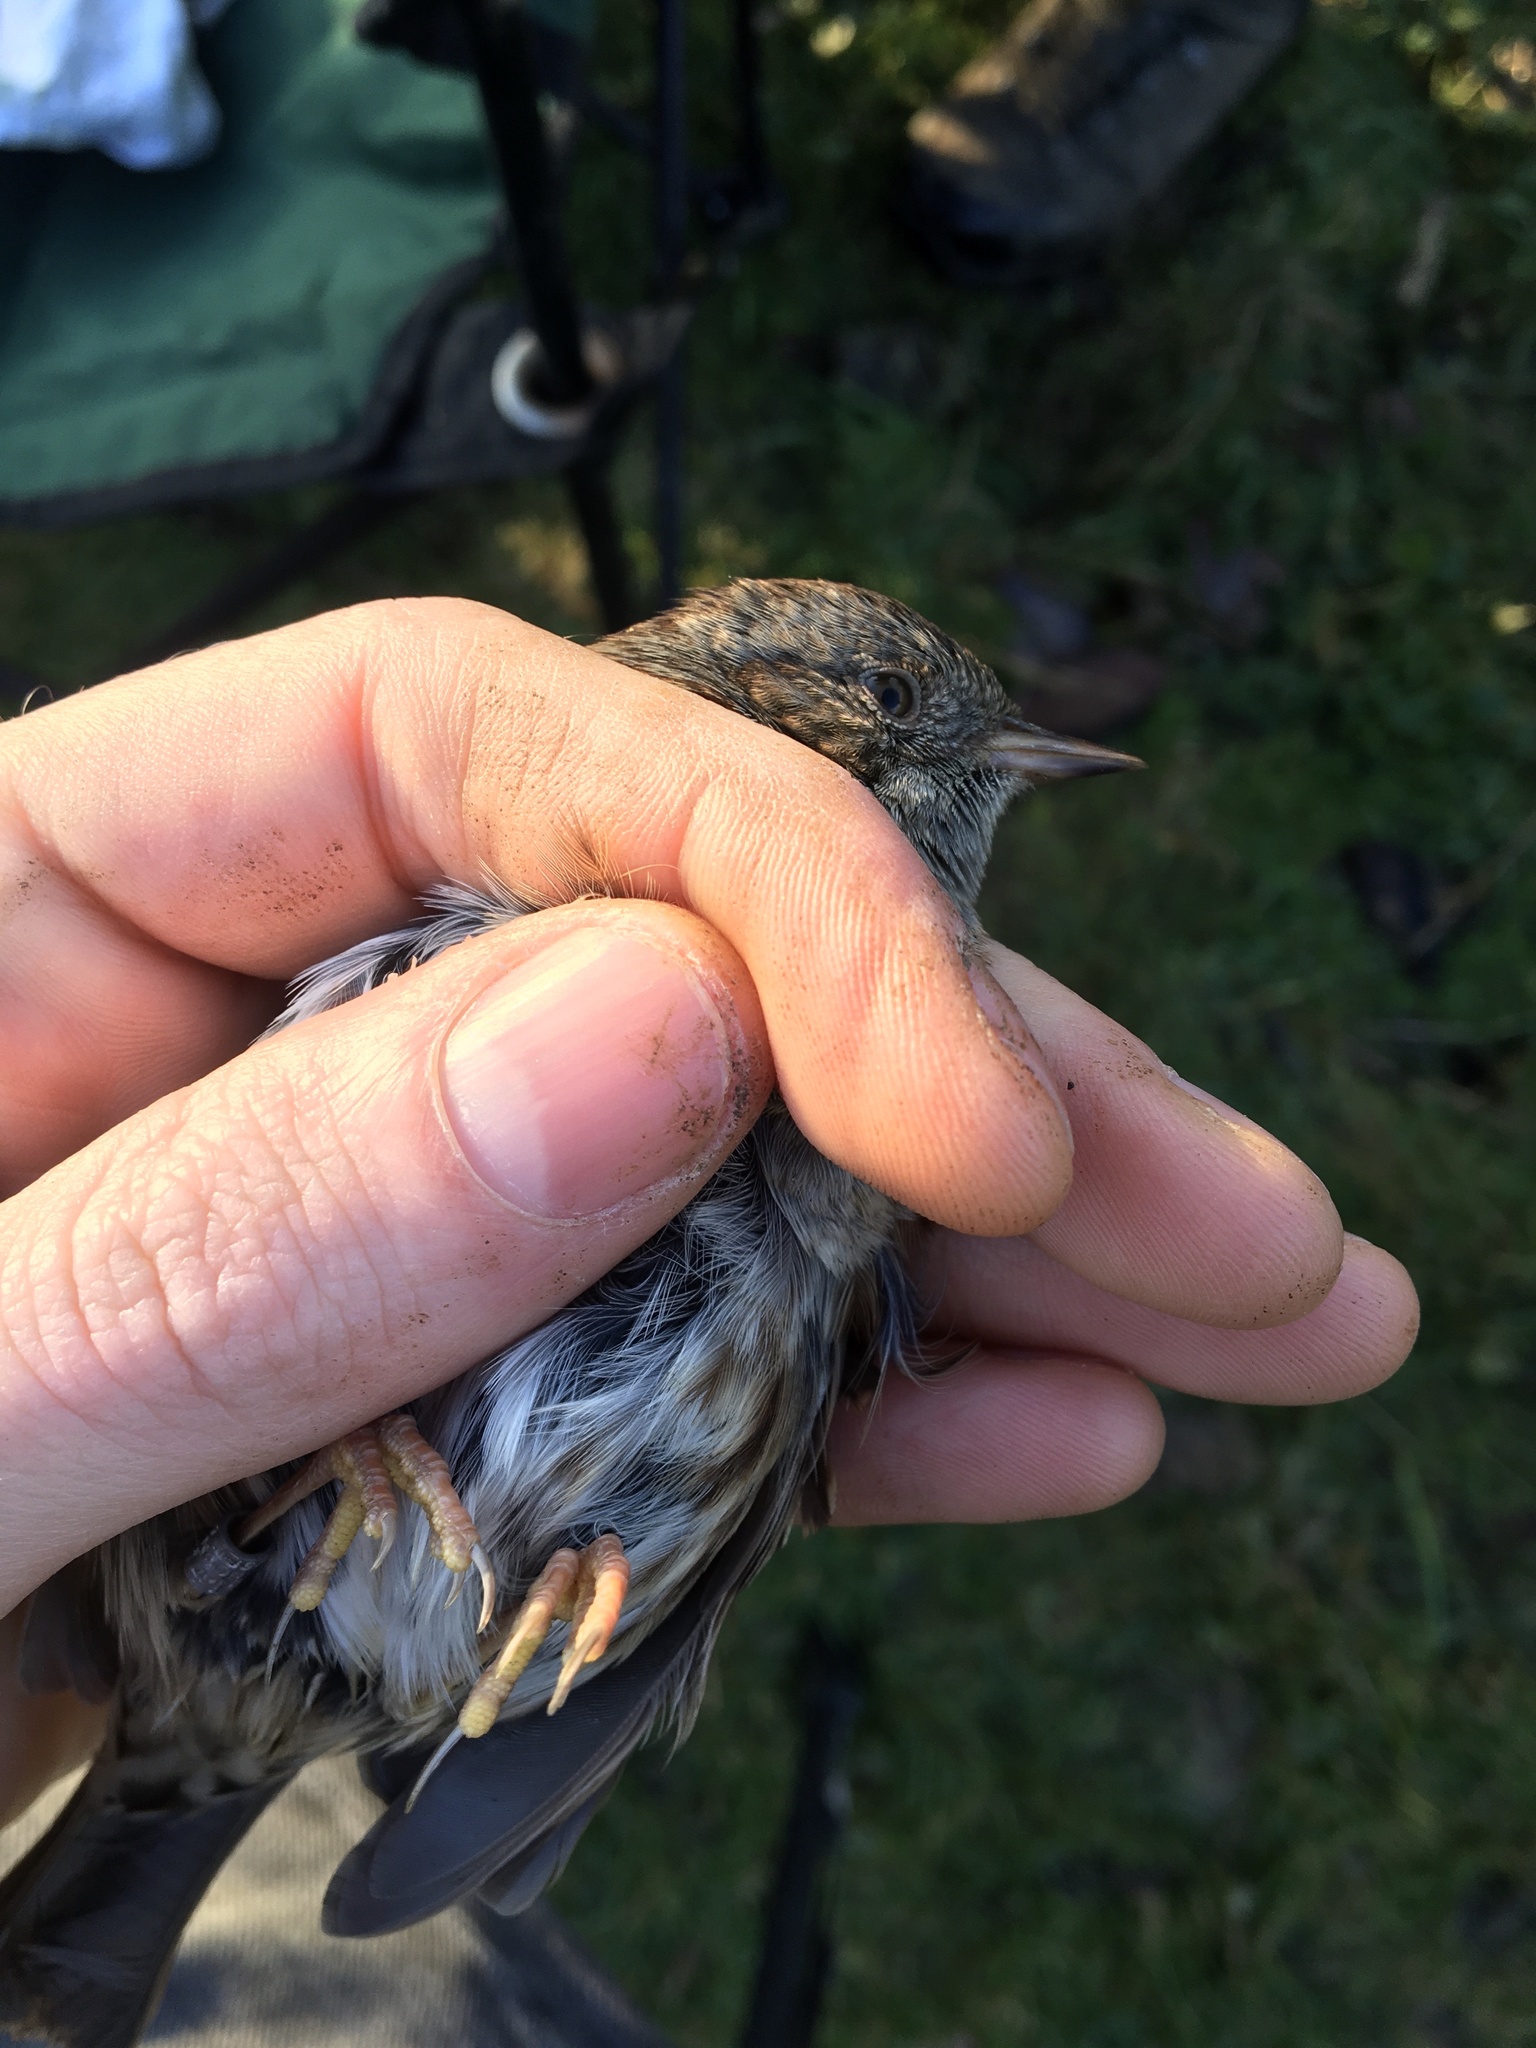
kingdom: Animalia
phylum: Chordata
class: Aves
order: Passeriformes
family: Prunellidae
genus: Prunella
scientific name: Prunella modularis
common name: Dunnock
